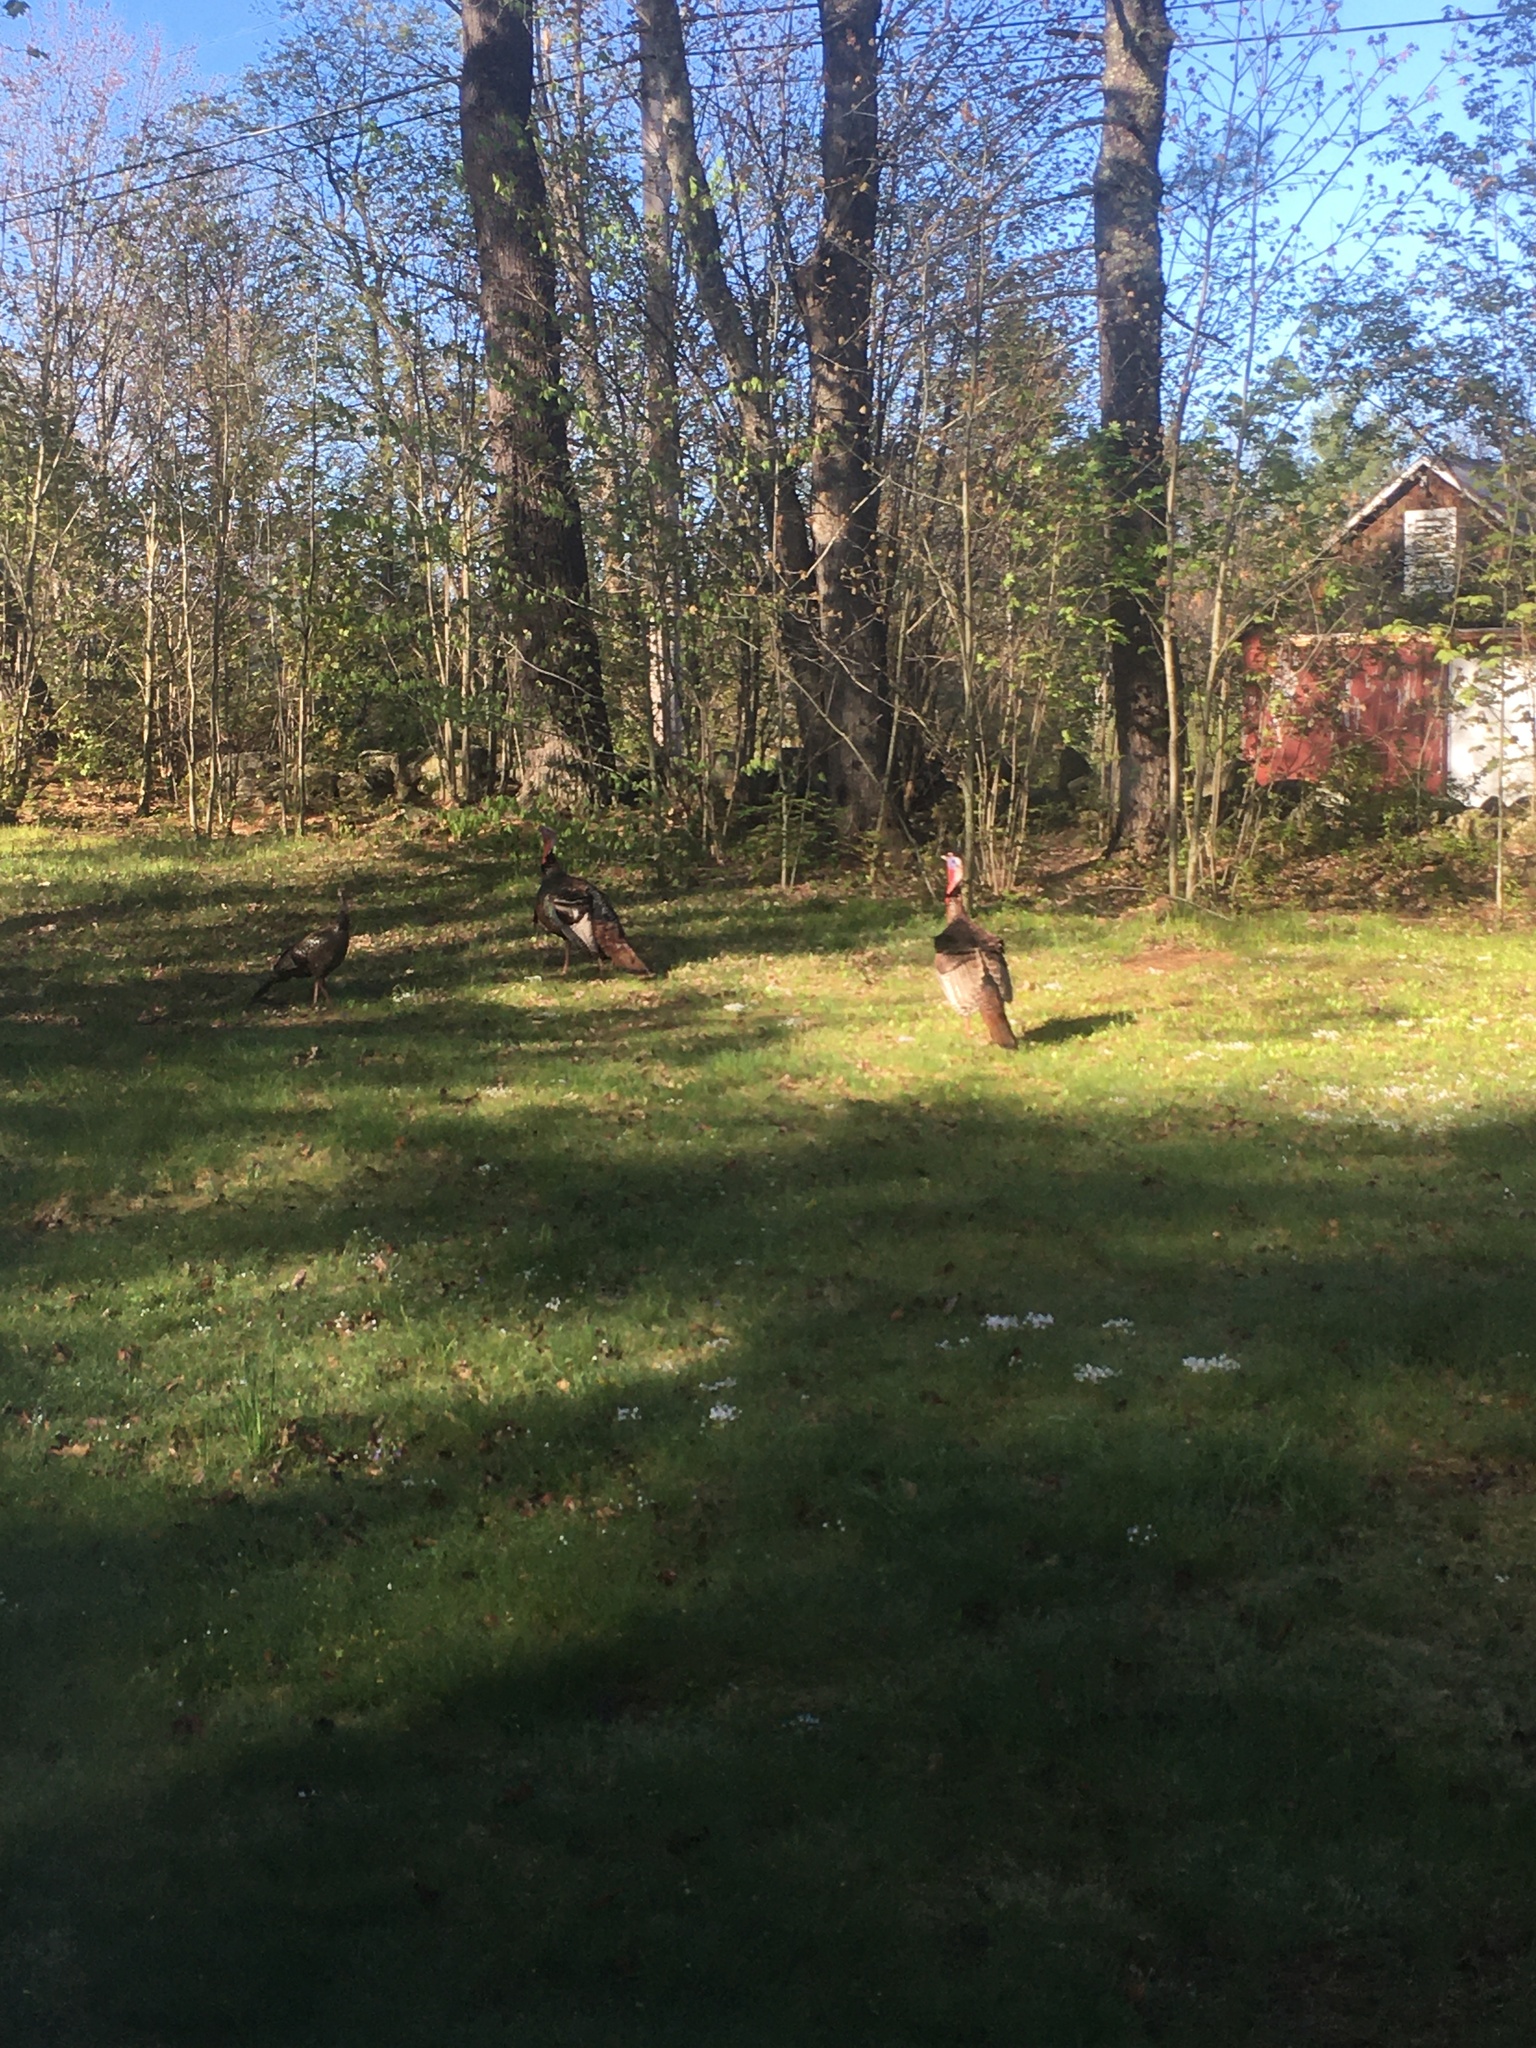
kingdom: Animalia
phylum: Chordata
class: Aves
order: Galliformes
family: Phasianidae
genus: Meleagris
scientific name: Meleagris gallopavo
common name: Wild turkey
